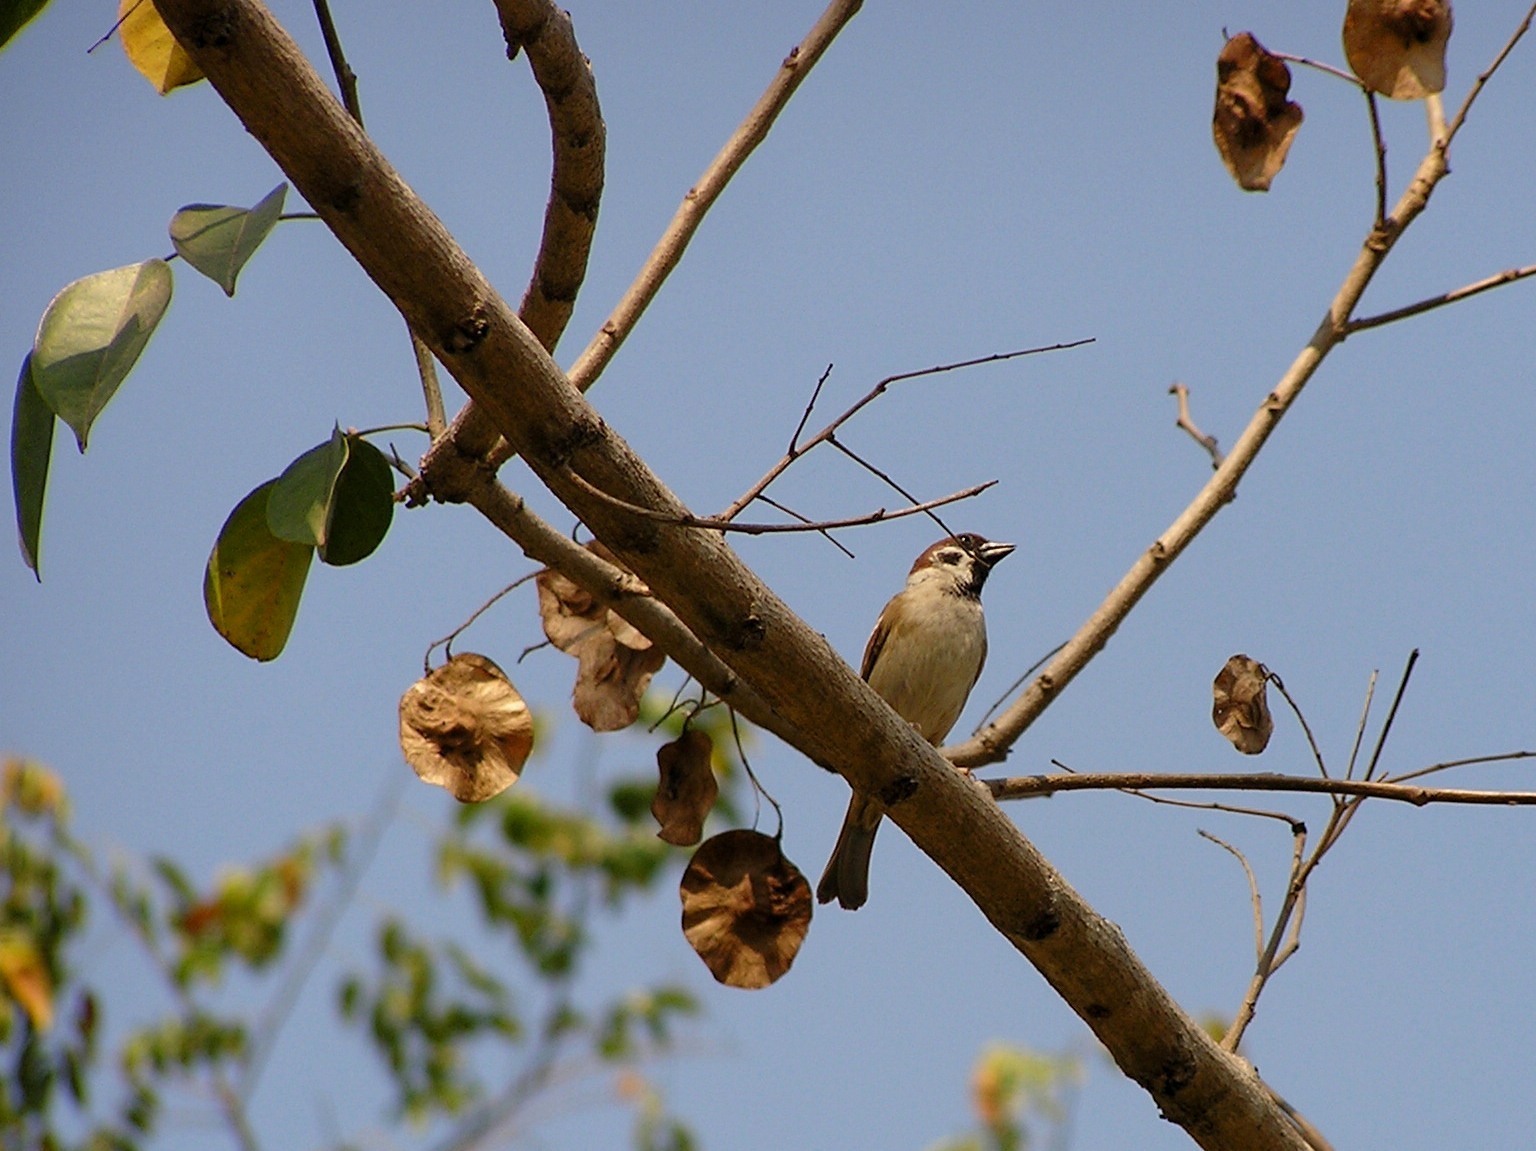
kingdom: Animalia
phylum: Chordata
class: Aves
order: Passeriformes
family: Passeridae
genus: Passer
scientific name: Passer montanus
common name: Eurasian tree sparrow
